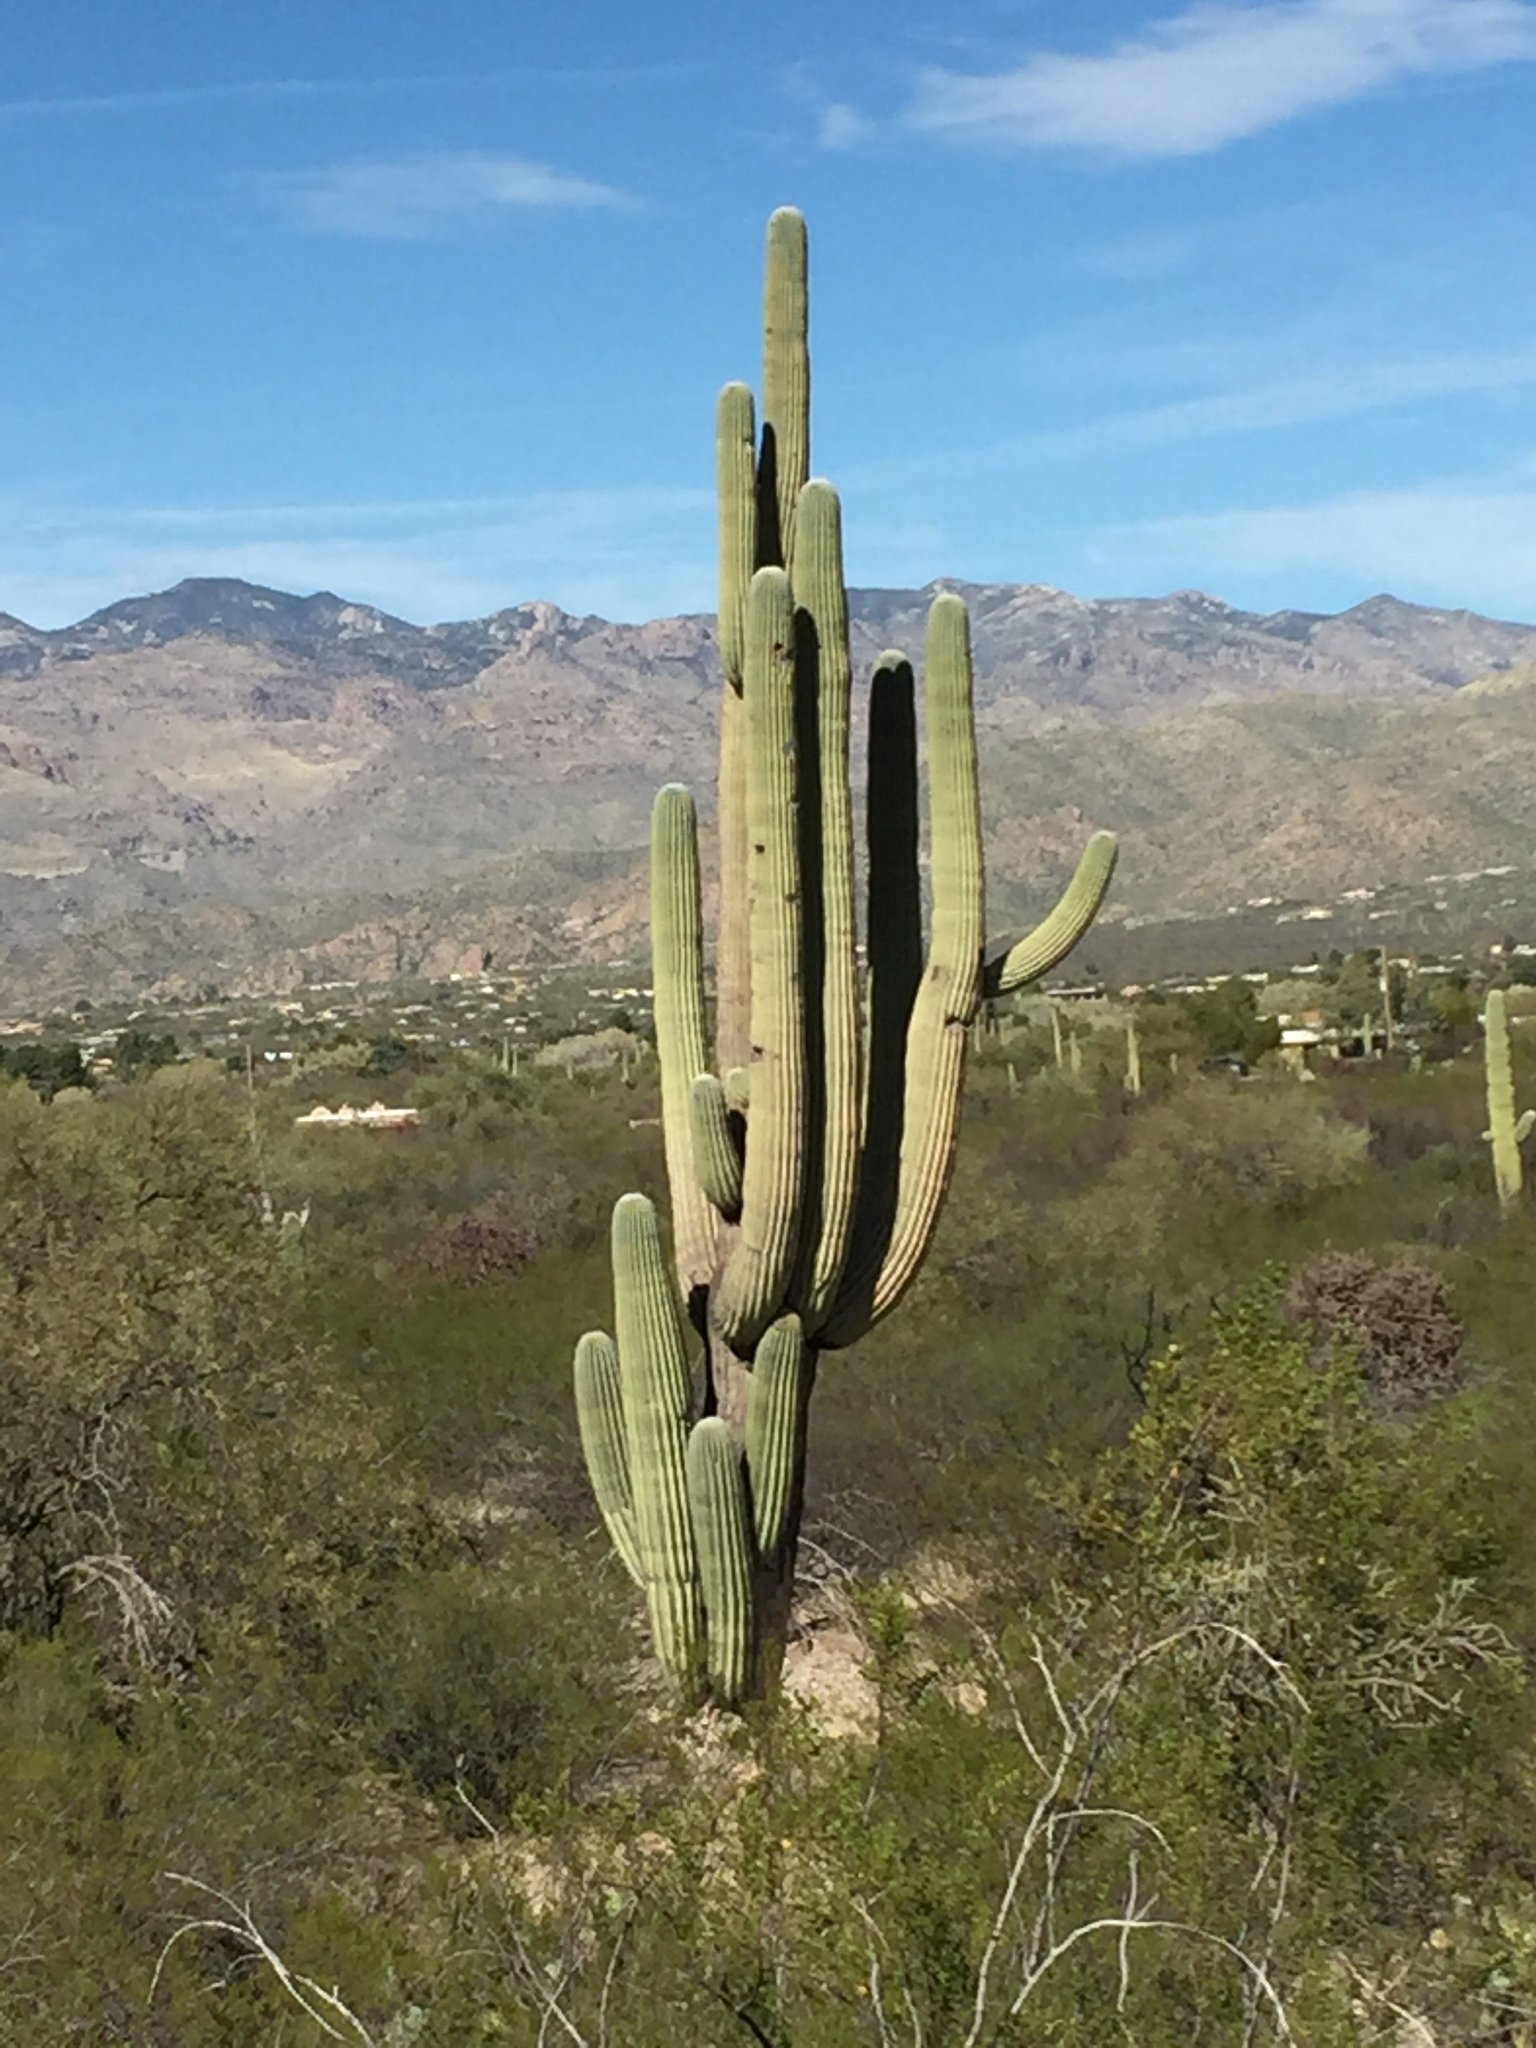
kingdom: Plantae
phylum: Tracheophyta
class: Magnoliopsida
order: Caryophyllales
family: Cactaceae
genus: Carnegiea
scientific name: Carnegiea gigantea
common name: Saguaro
